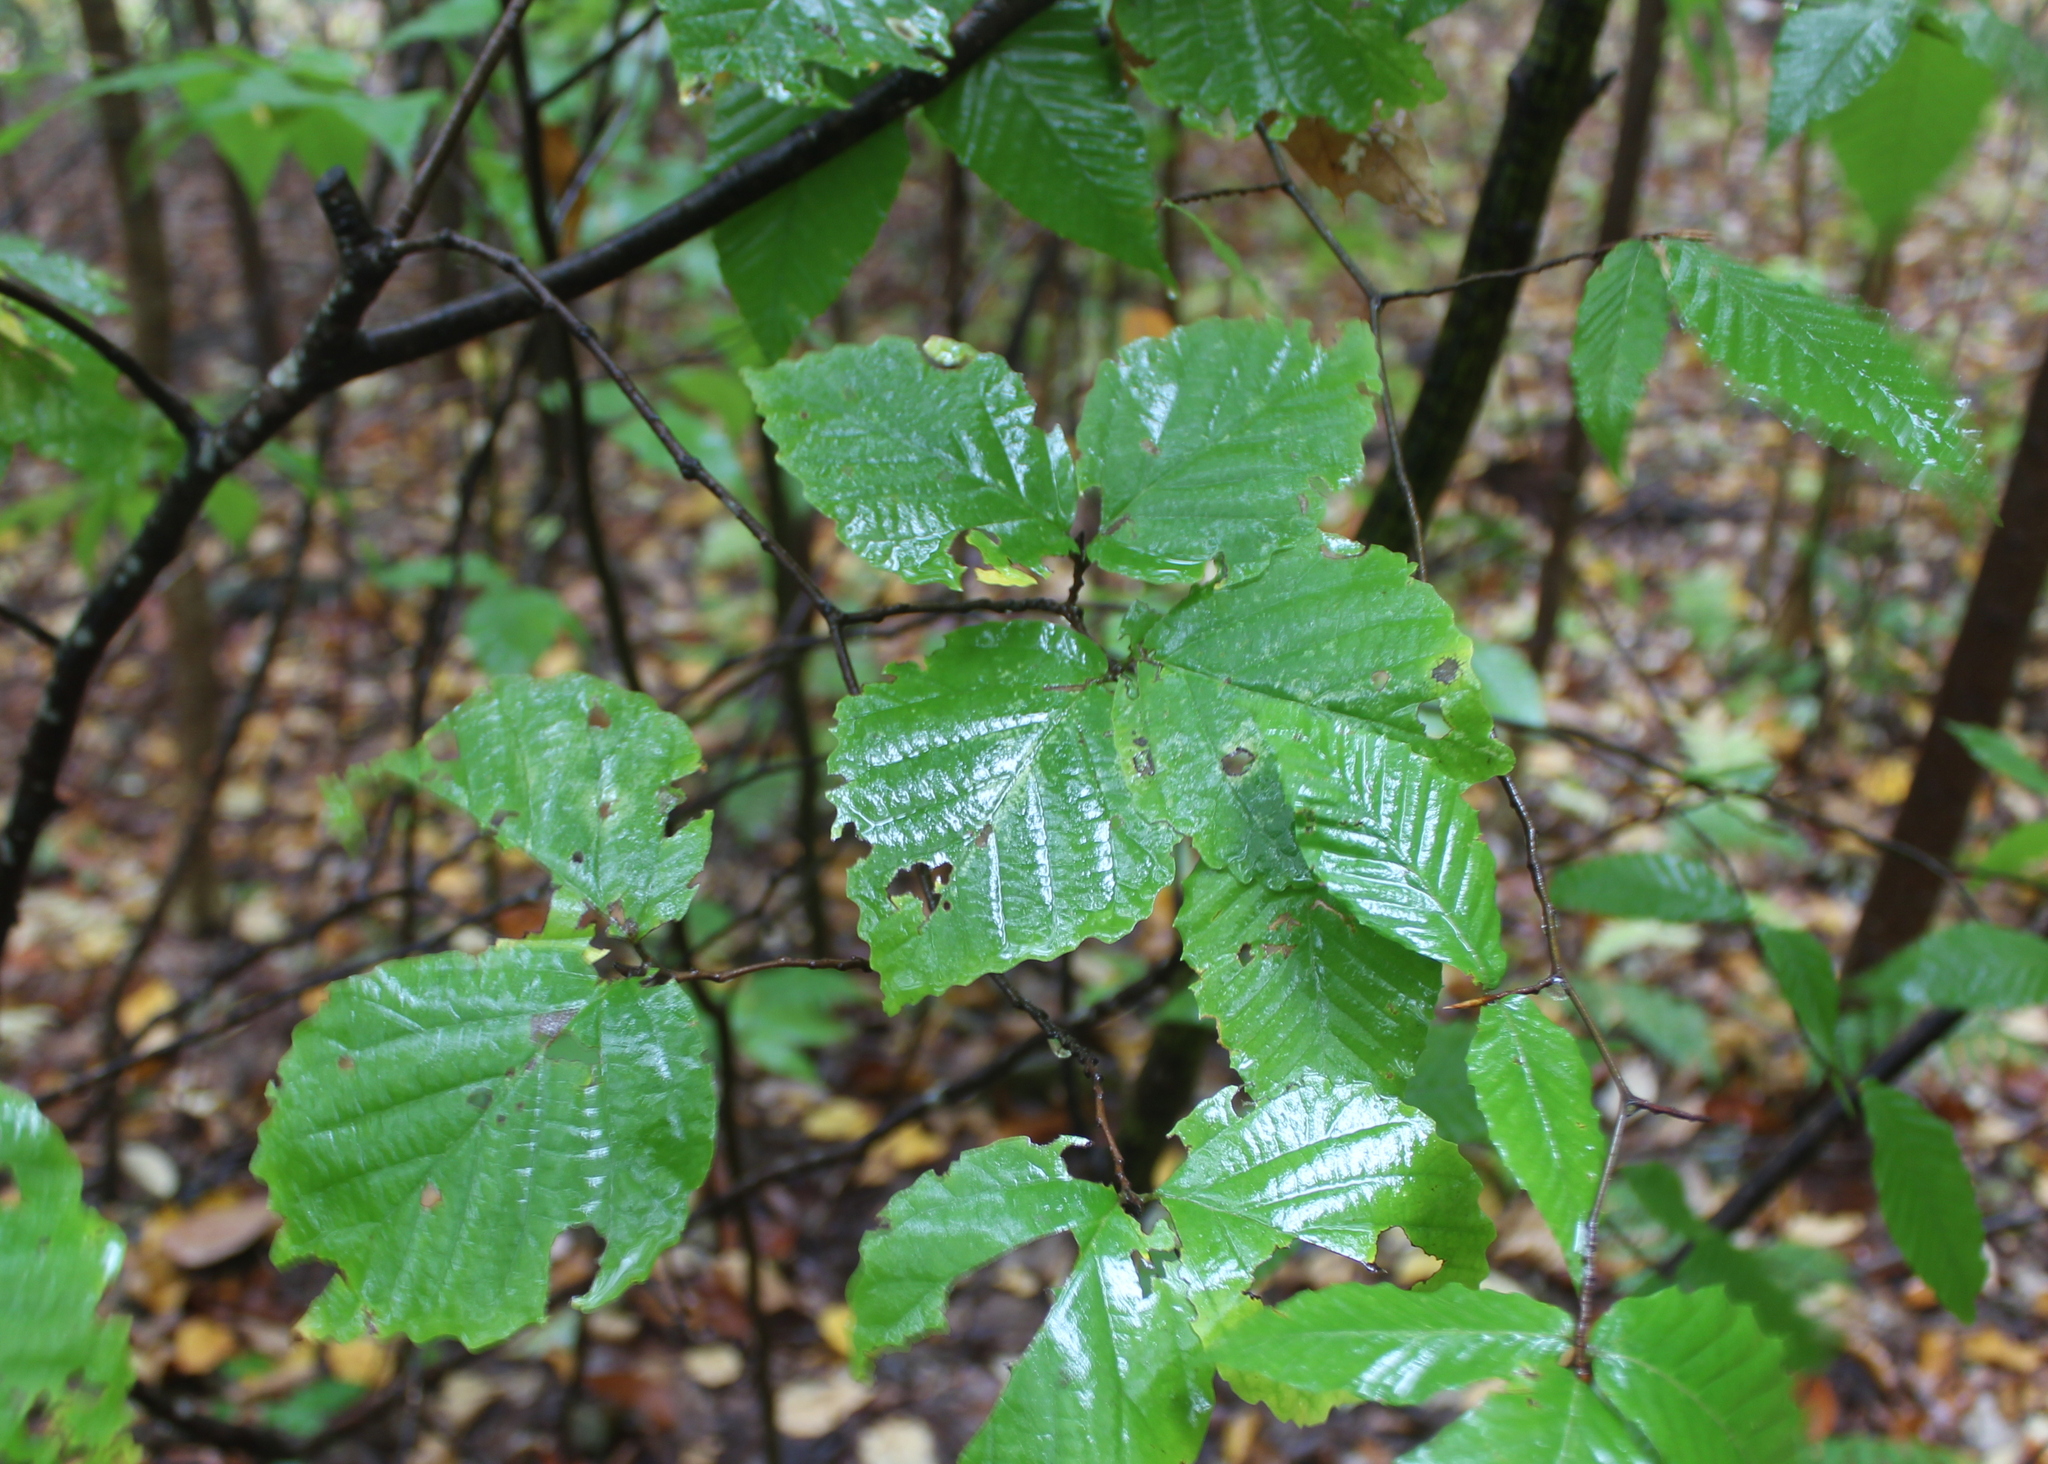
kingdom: Plantae
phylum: Tracheophyta
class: Magnoliopsida
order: Saxifragales
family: Hamamelidaceae
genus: Hamamelis
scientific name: Hamamelis virginiana
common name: Witch-hazel
